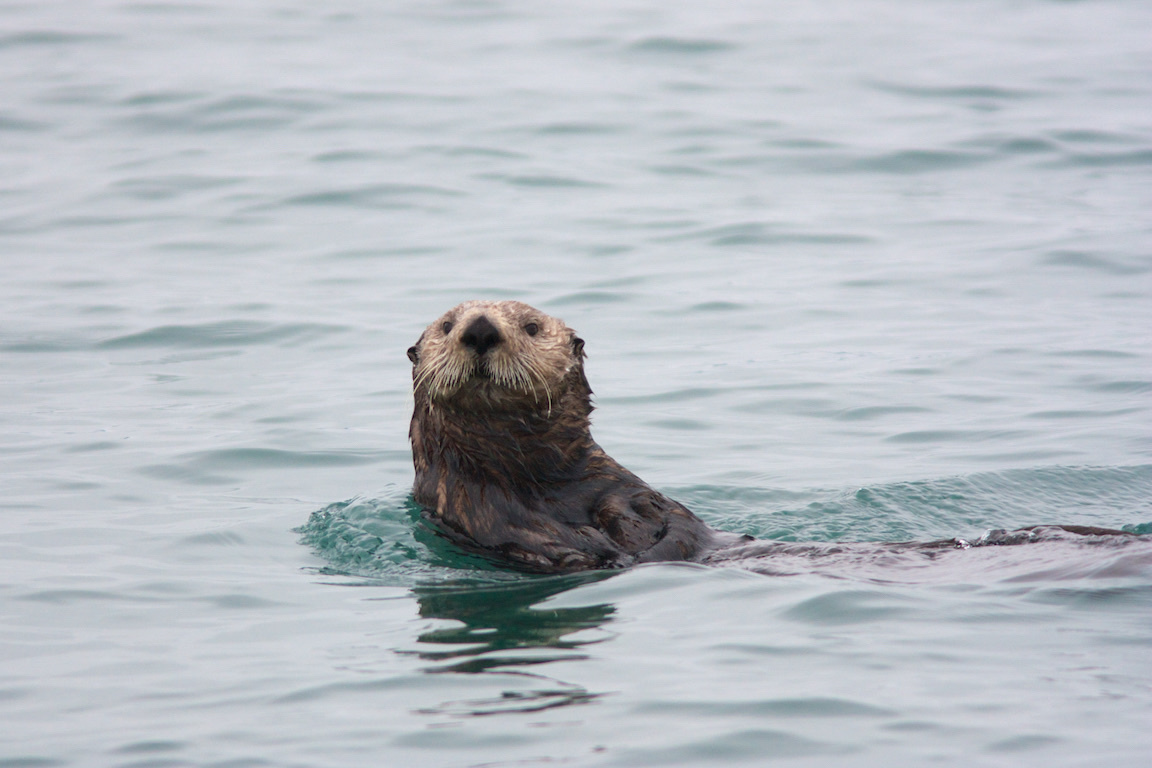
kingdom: Animalia
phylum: Chordata
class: Mammalia
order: Carnivora
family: Mustelidae
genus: Enhydra
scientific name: Enhydra lutris
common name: Sea otter
